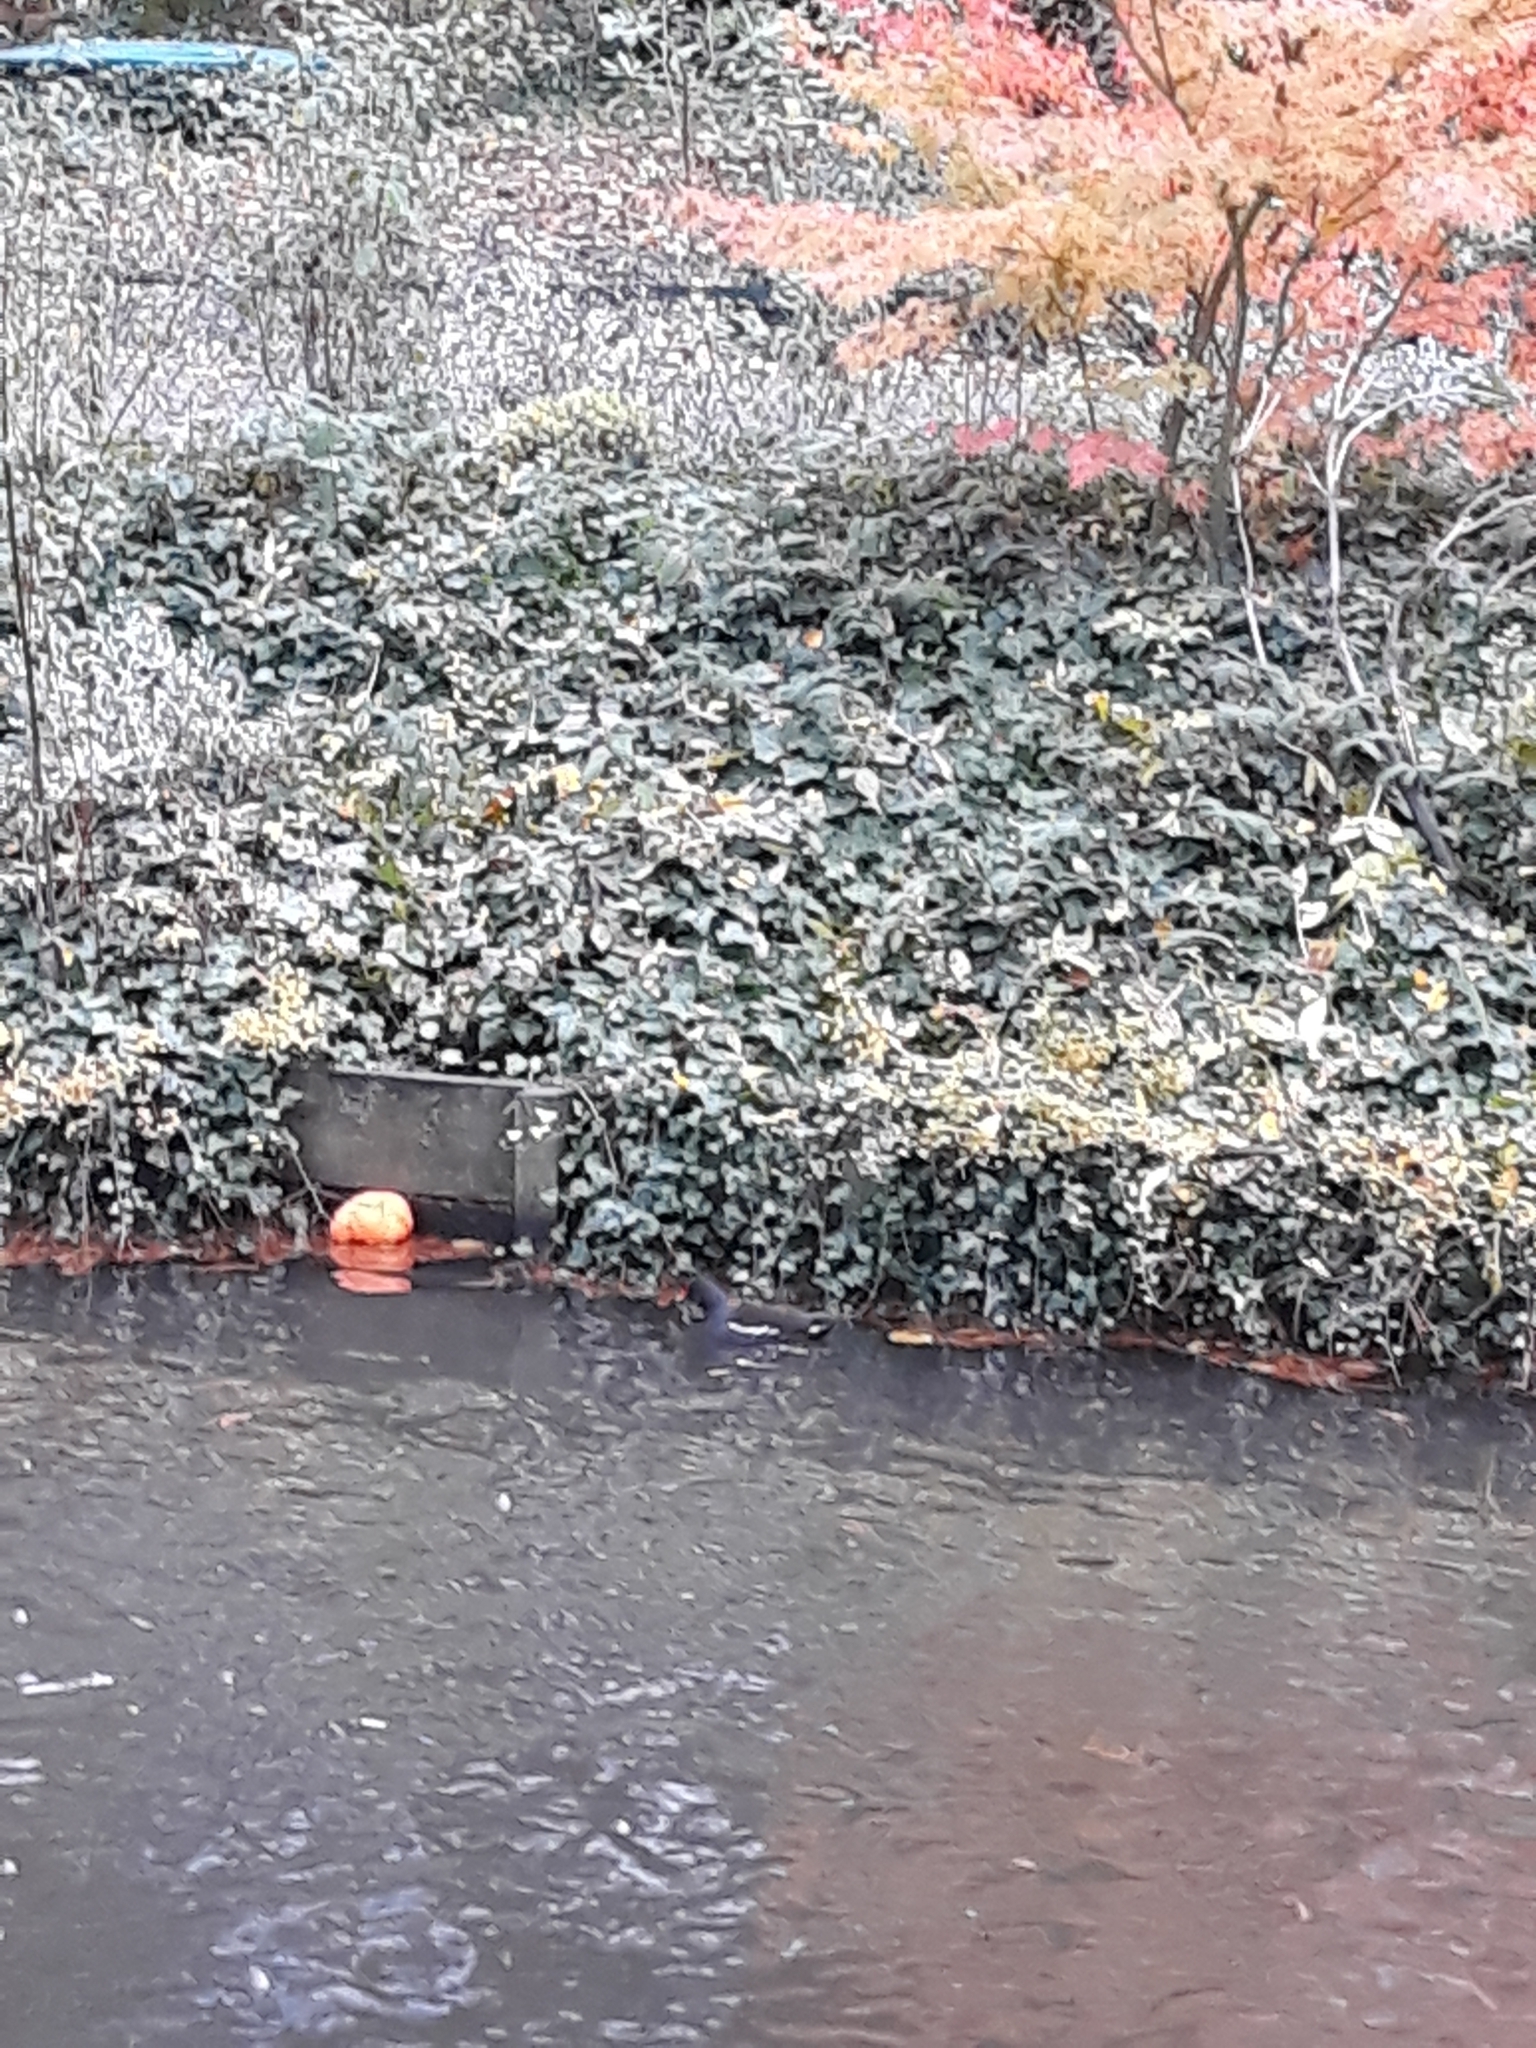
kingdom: Animalia
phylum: Chordata
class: Aves
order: Gruiformes
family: Rallidae
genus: Gallinula
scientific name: Gallinula chloropus
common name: Common moorhen
